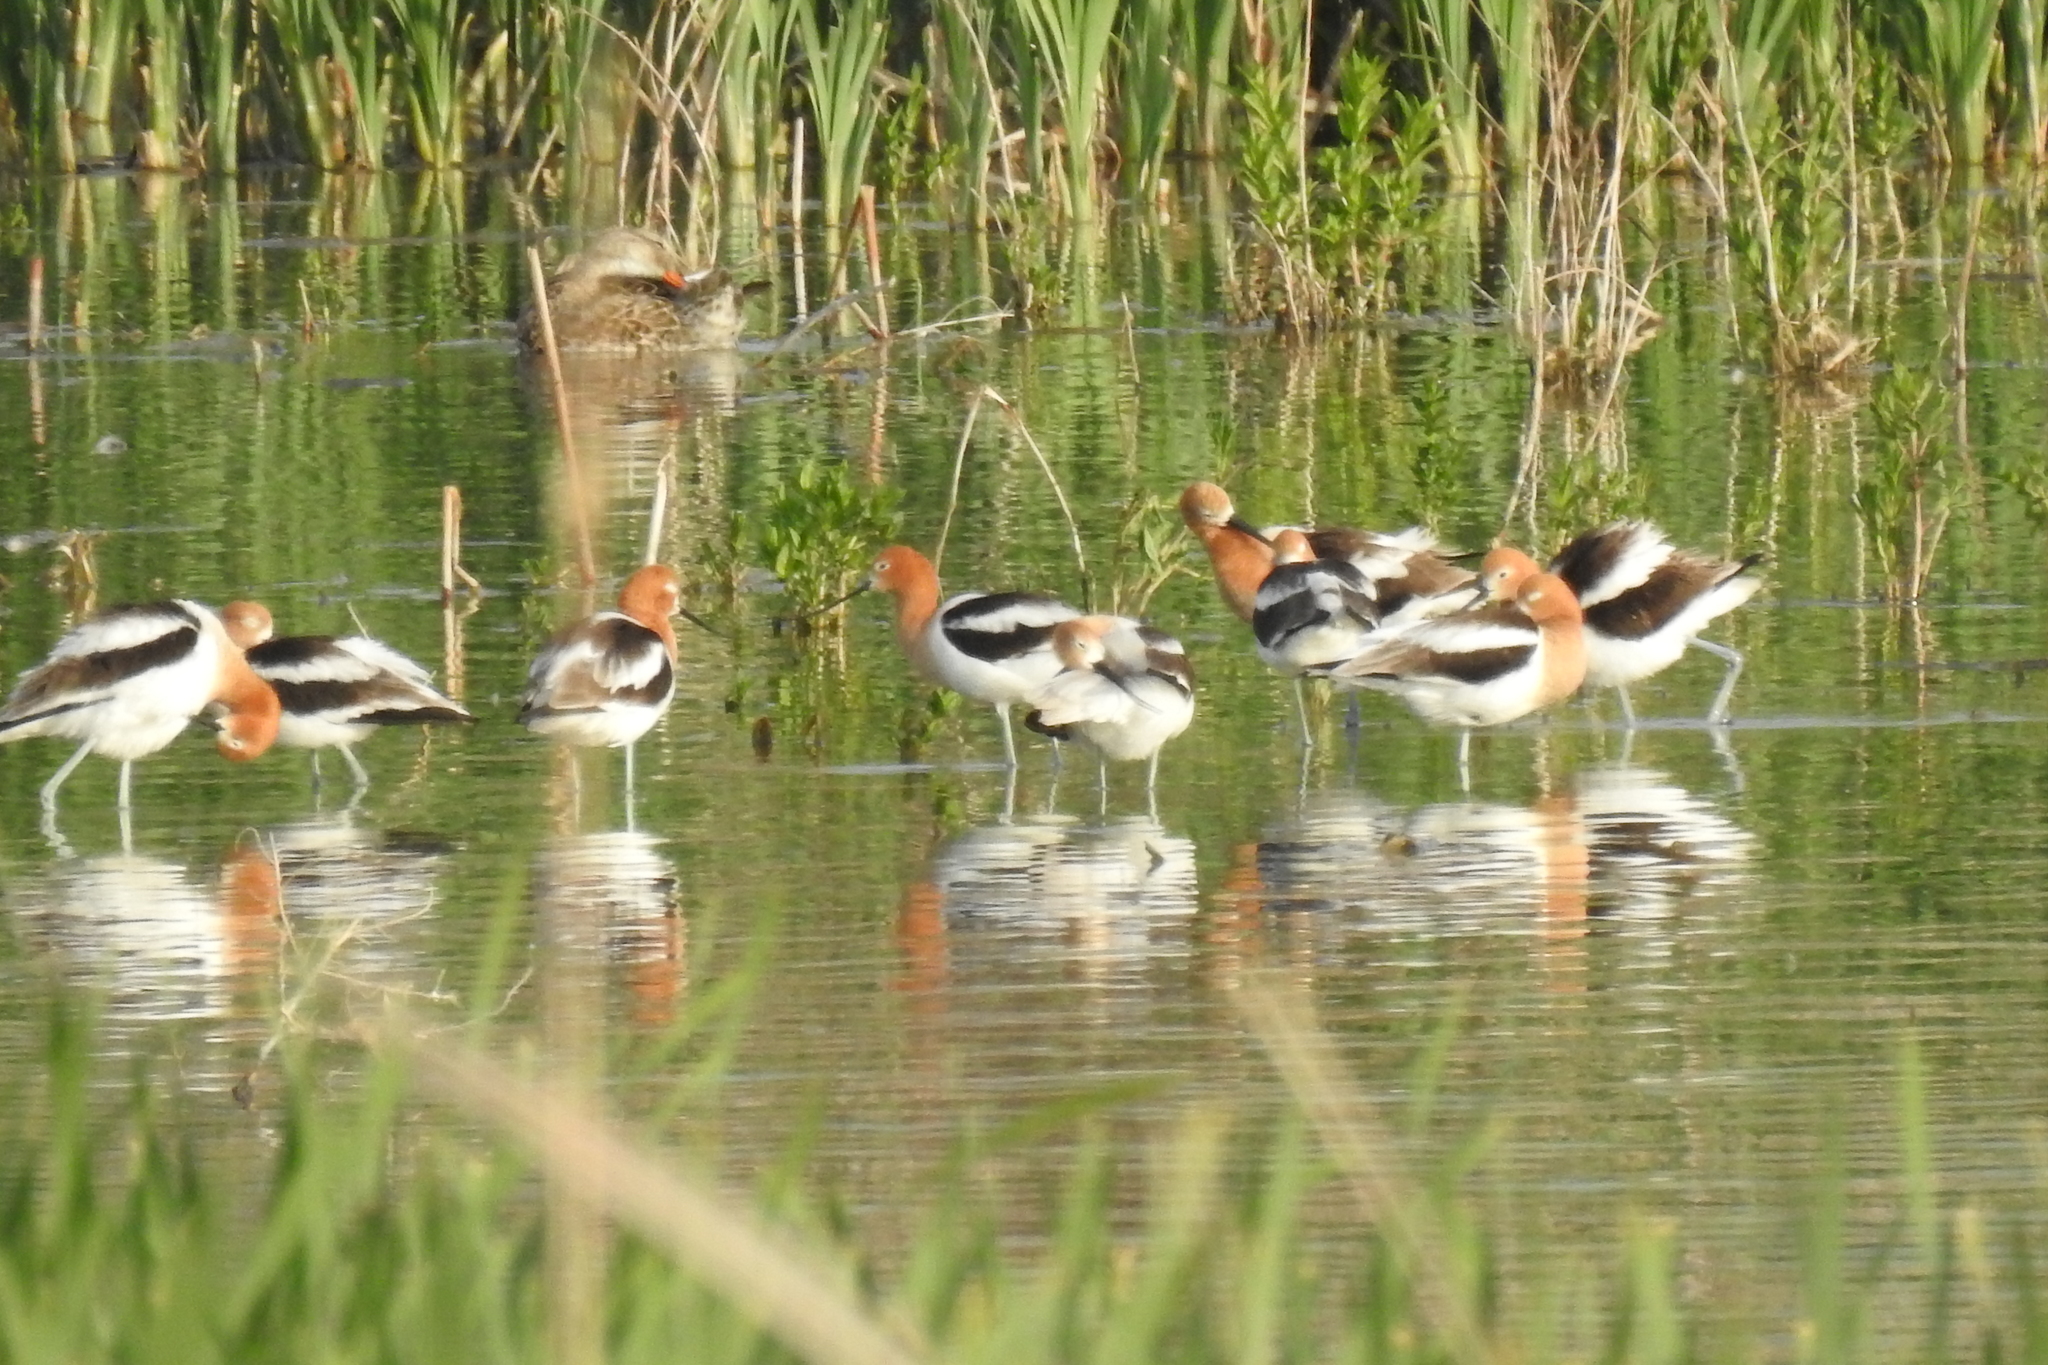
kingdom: Animalia
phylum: Chordata
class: Aves
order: Charadriiformes
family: Recurvirostridae
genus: Recurvirostra
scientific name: Recurvirostra americana
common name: American avocet
